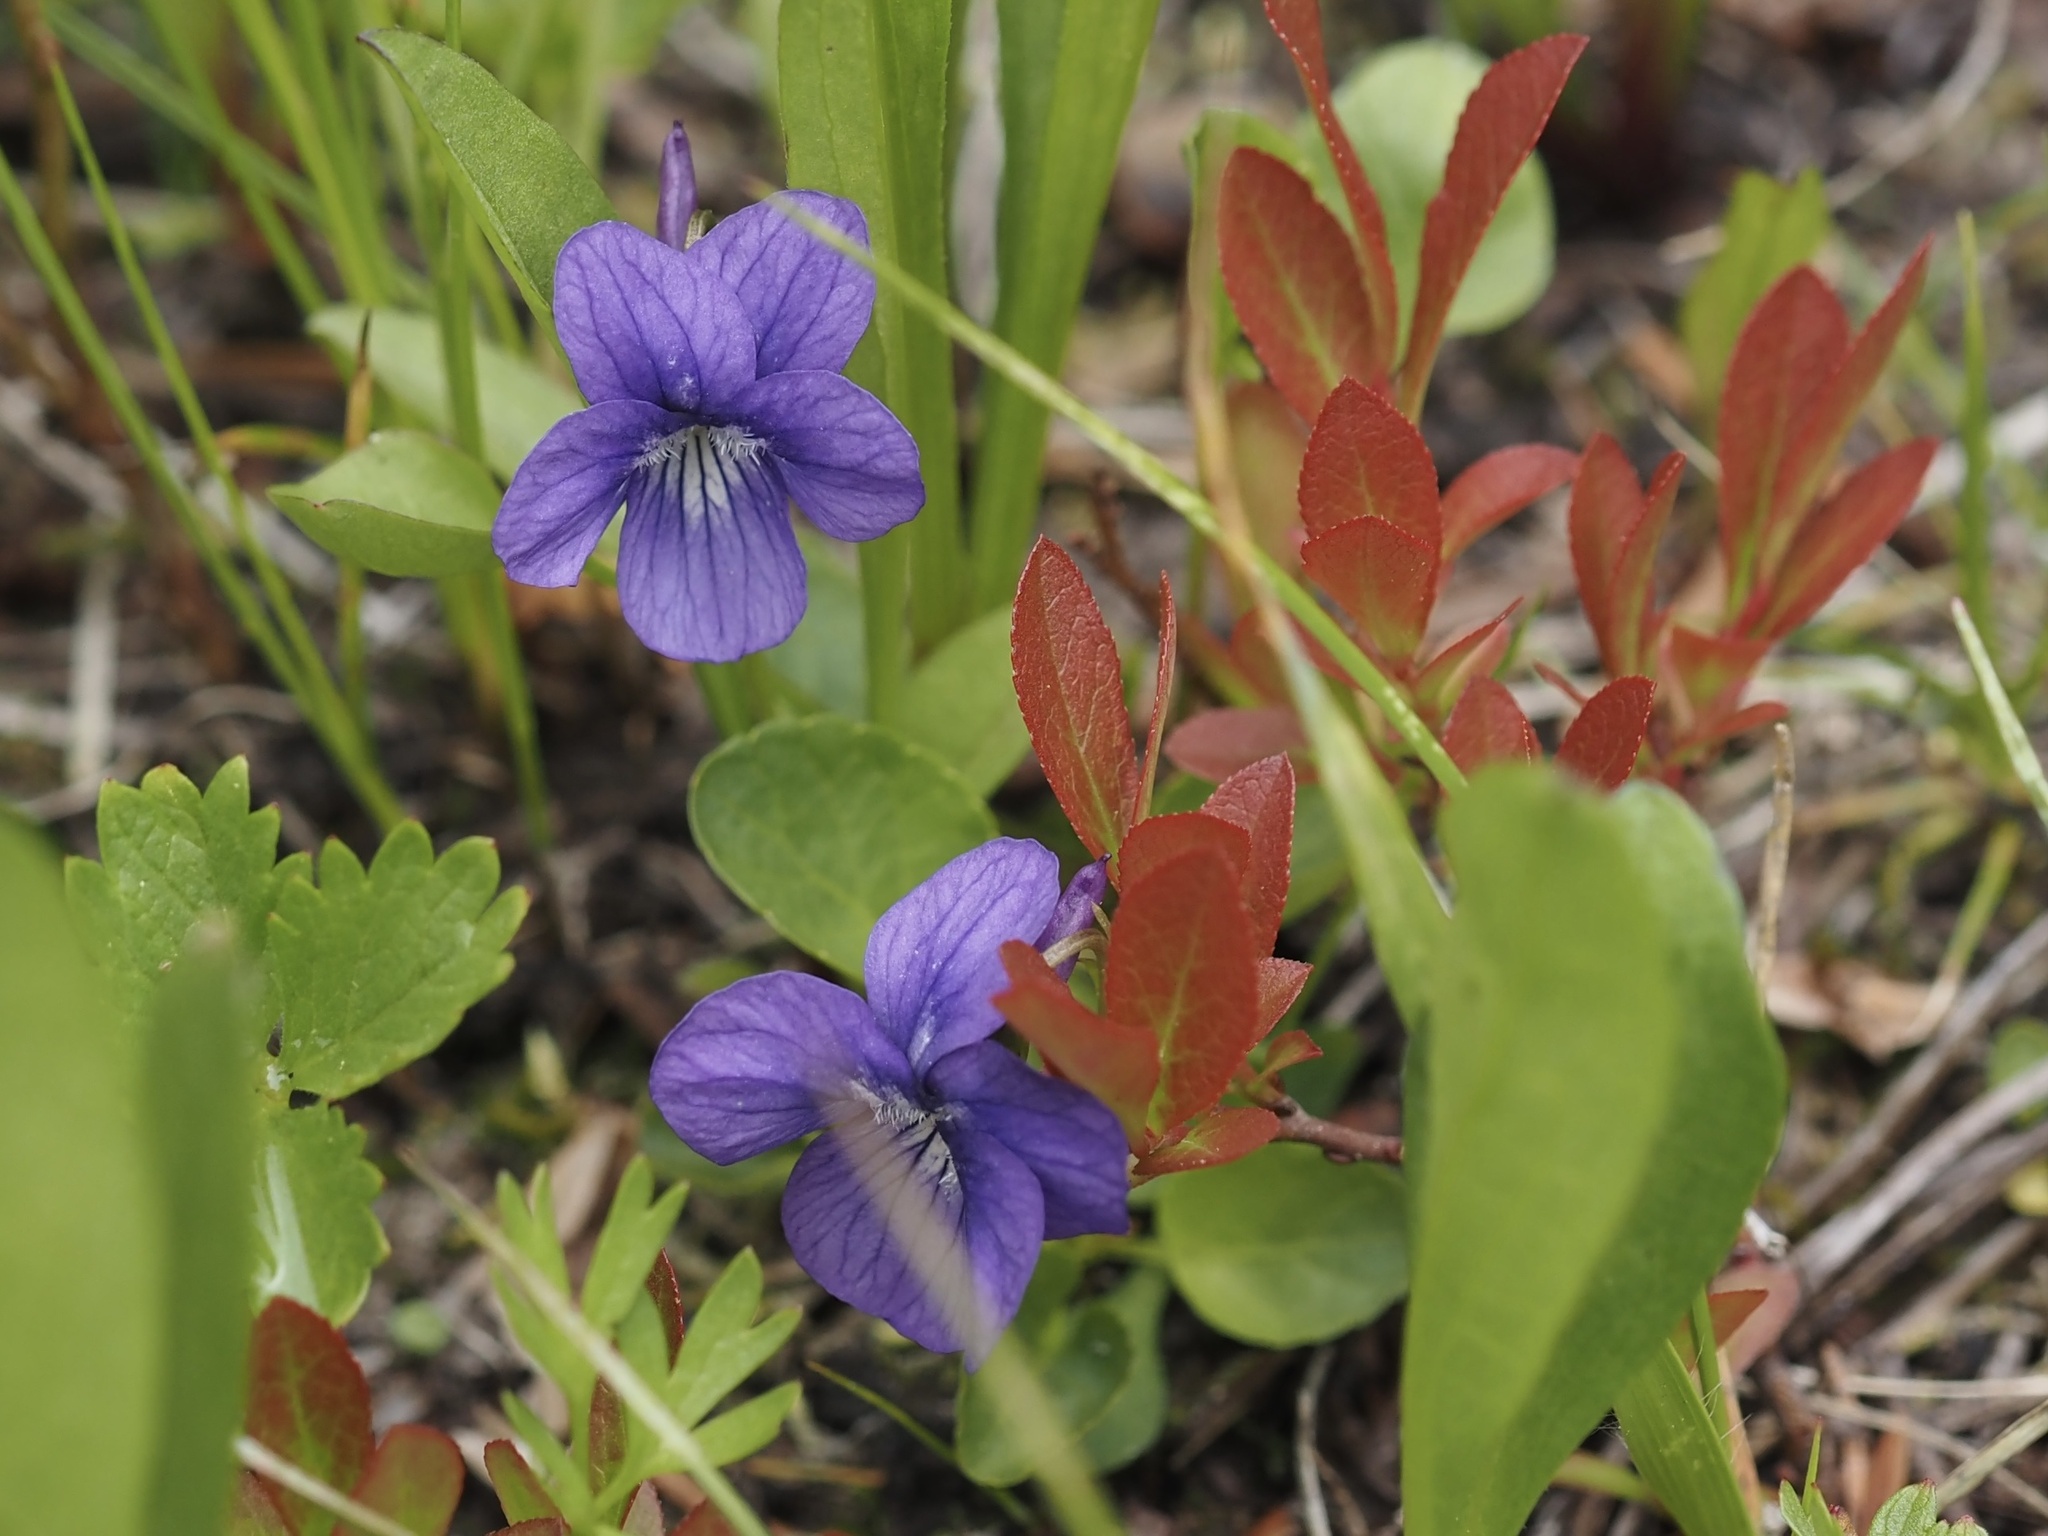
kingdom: Plantae
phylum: Tracheophyta
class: Magnoliopsida
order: Malpighiales
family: Violaceae
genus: Viola
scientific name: Viola adunca
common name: Sand violet
